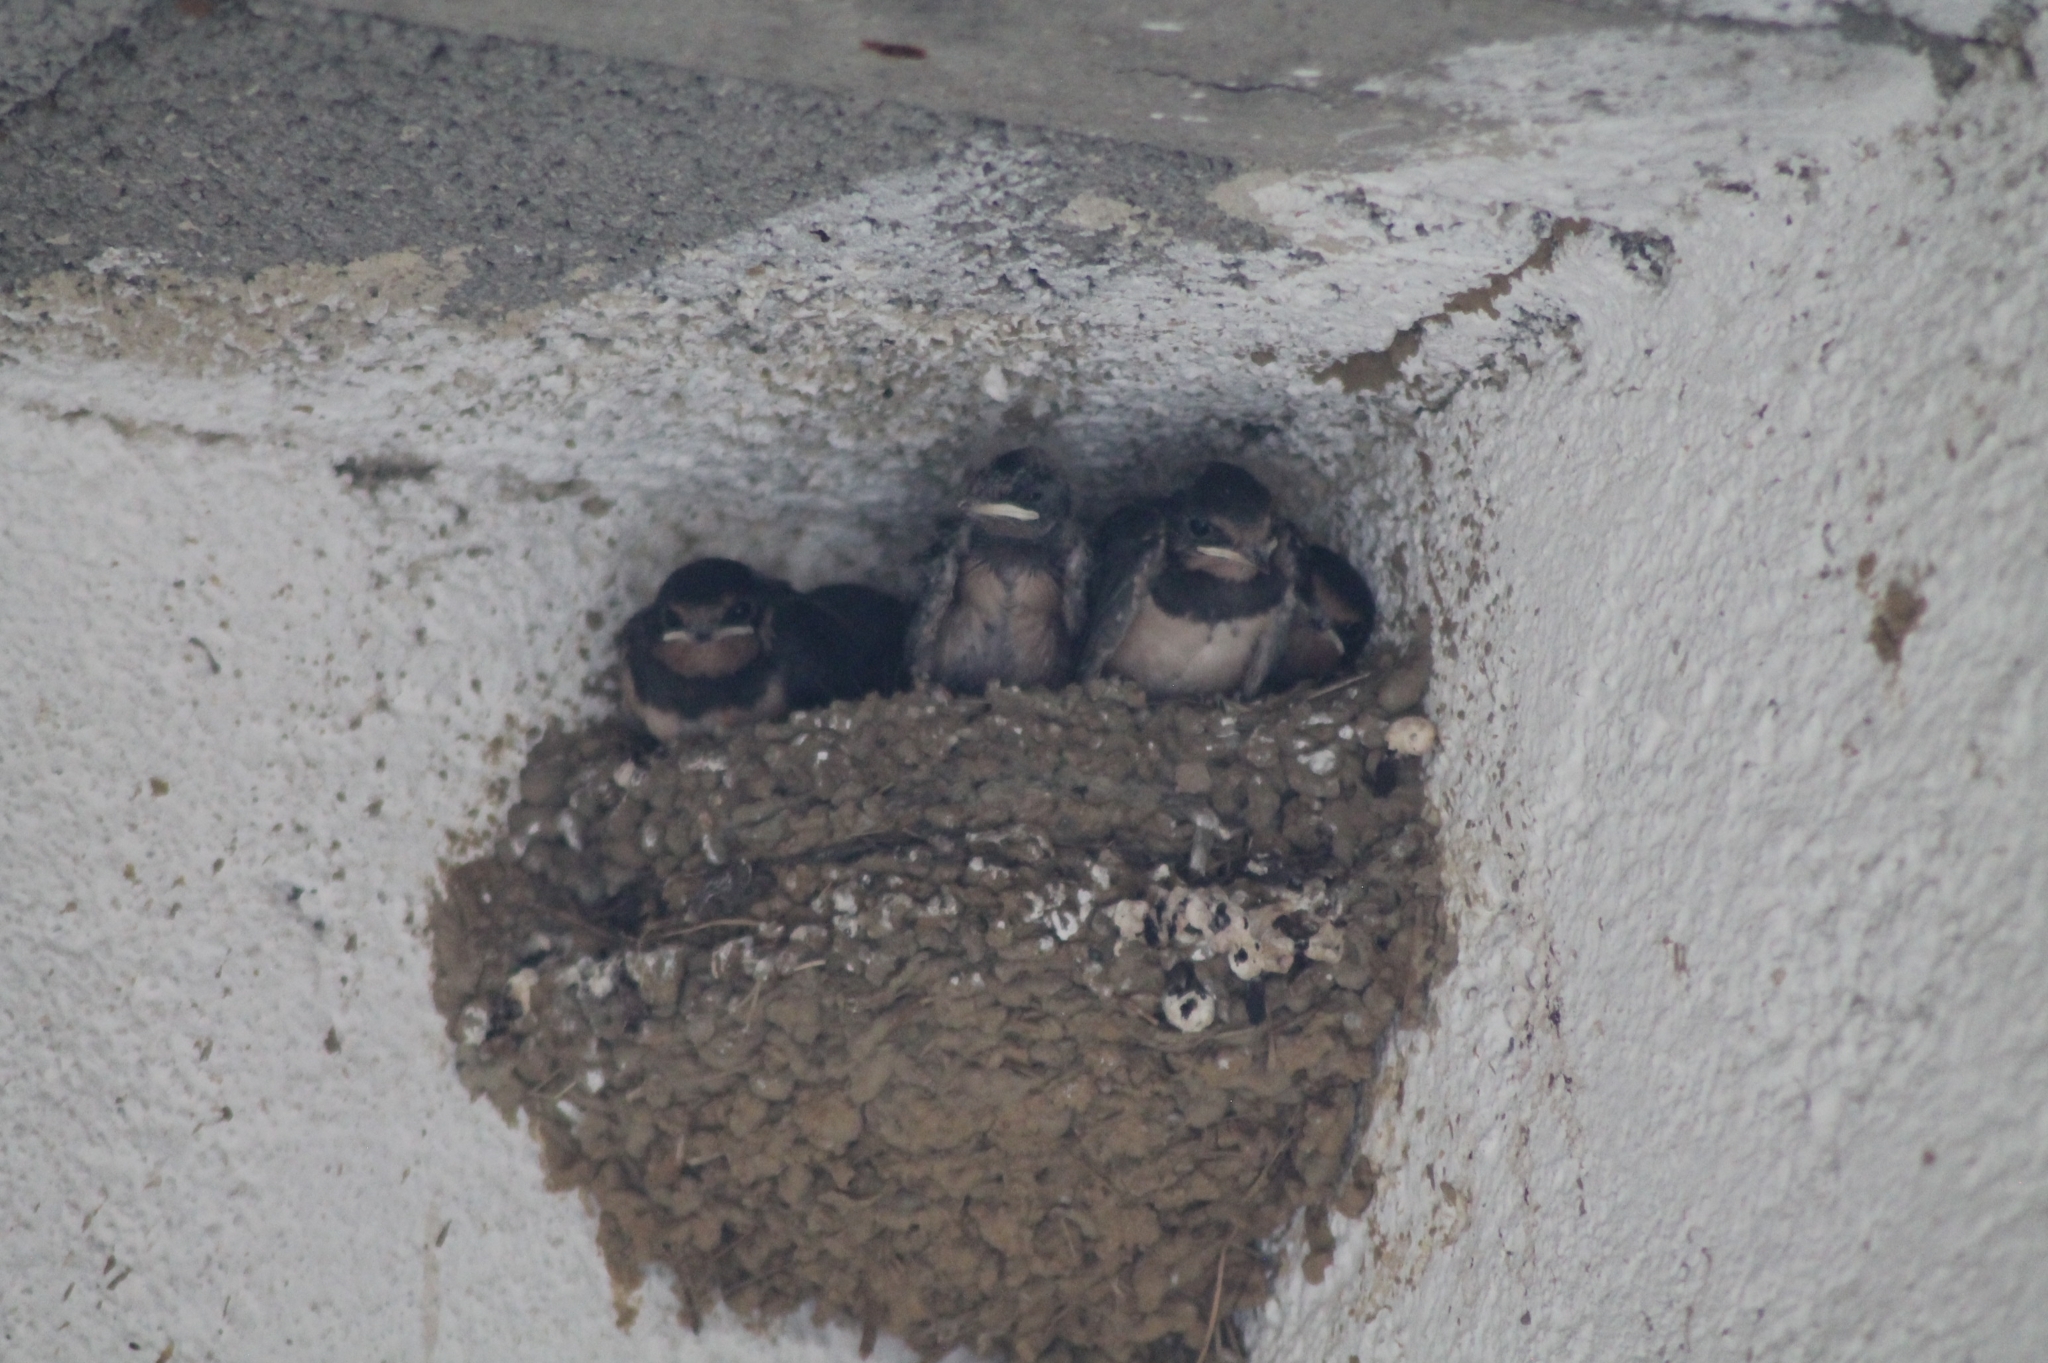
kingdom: Animalia
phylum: Chordata
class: Aves
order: Passeriformes
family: Hirundinidae
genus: Hirundo
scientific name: Hirundo rustica
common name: Barn swallow
